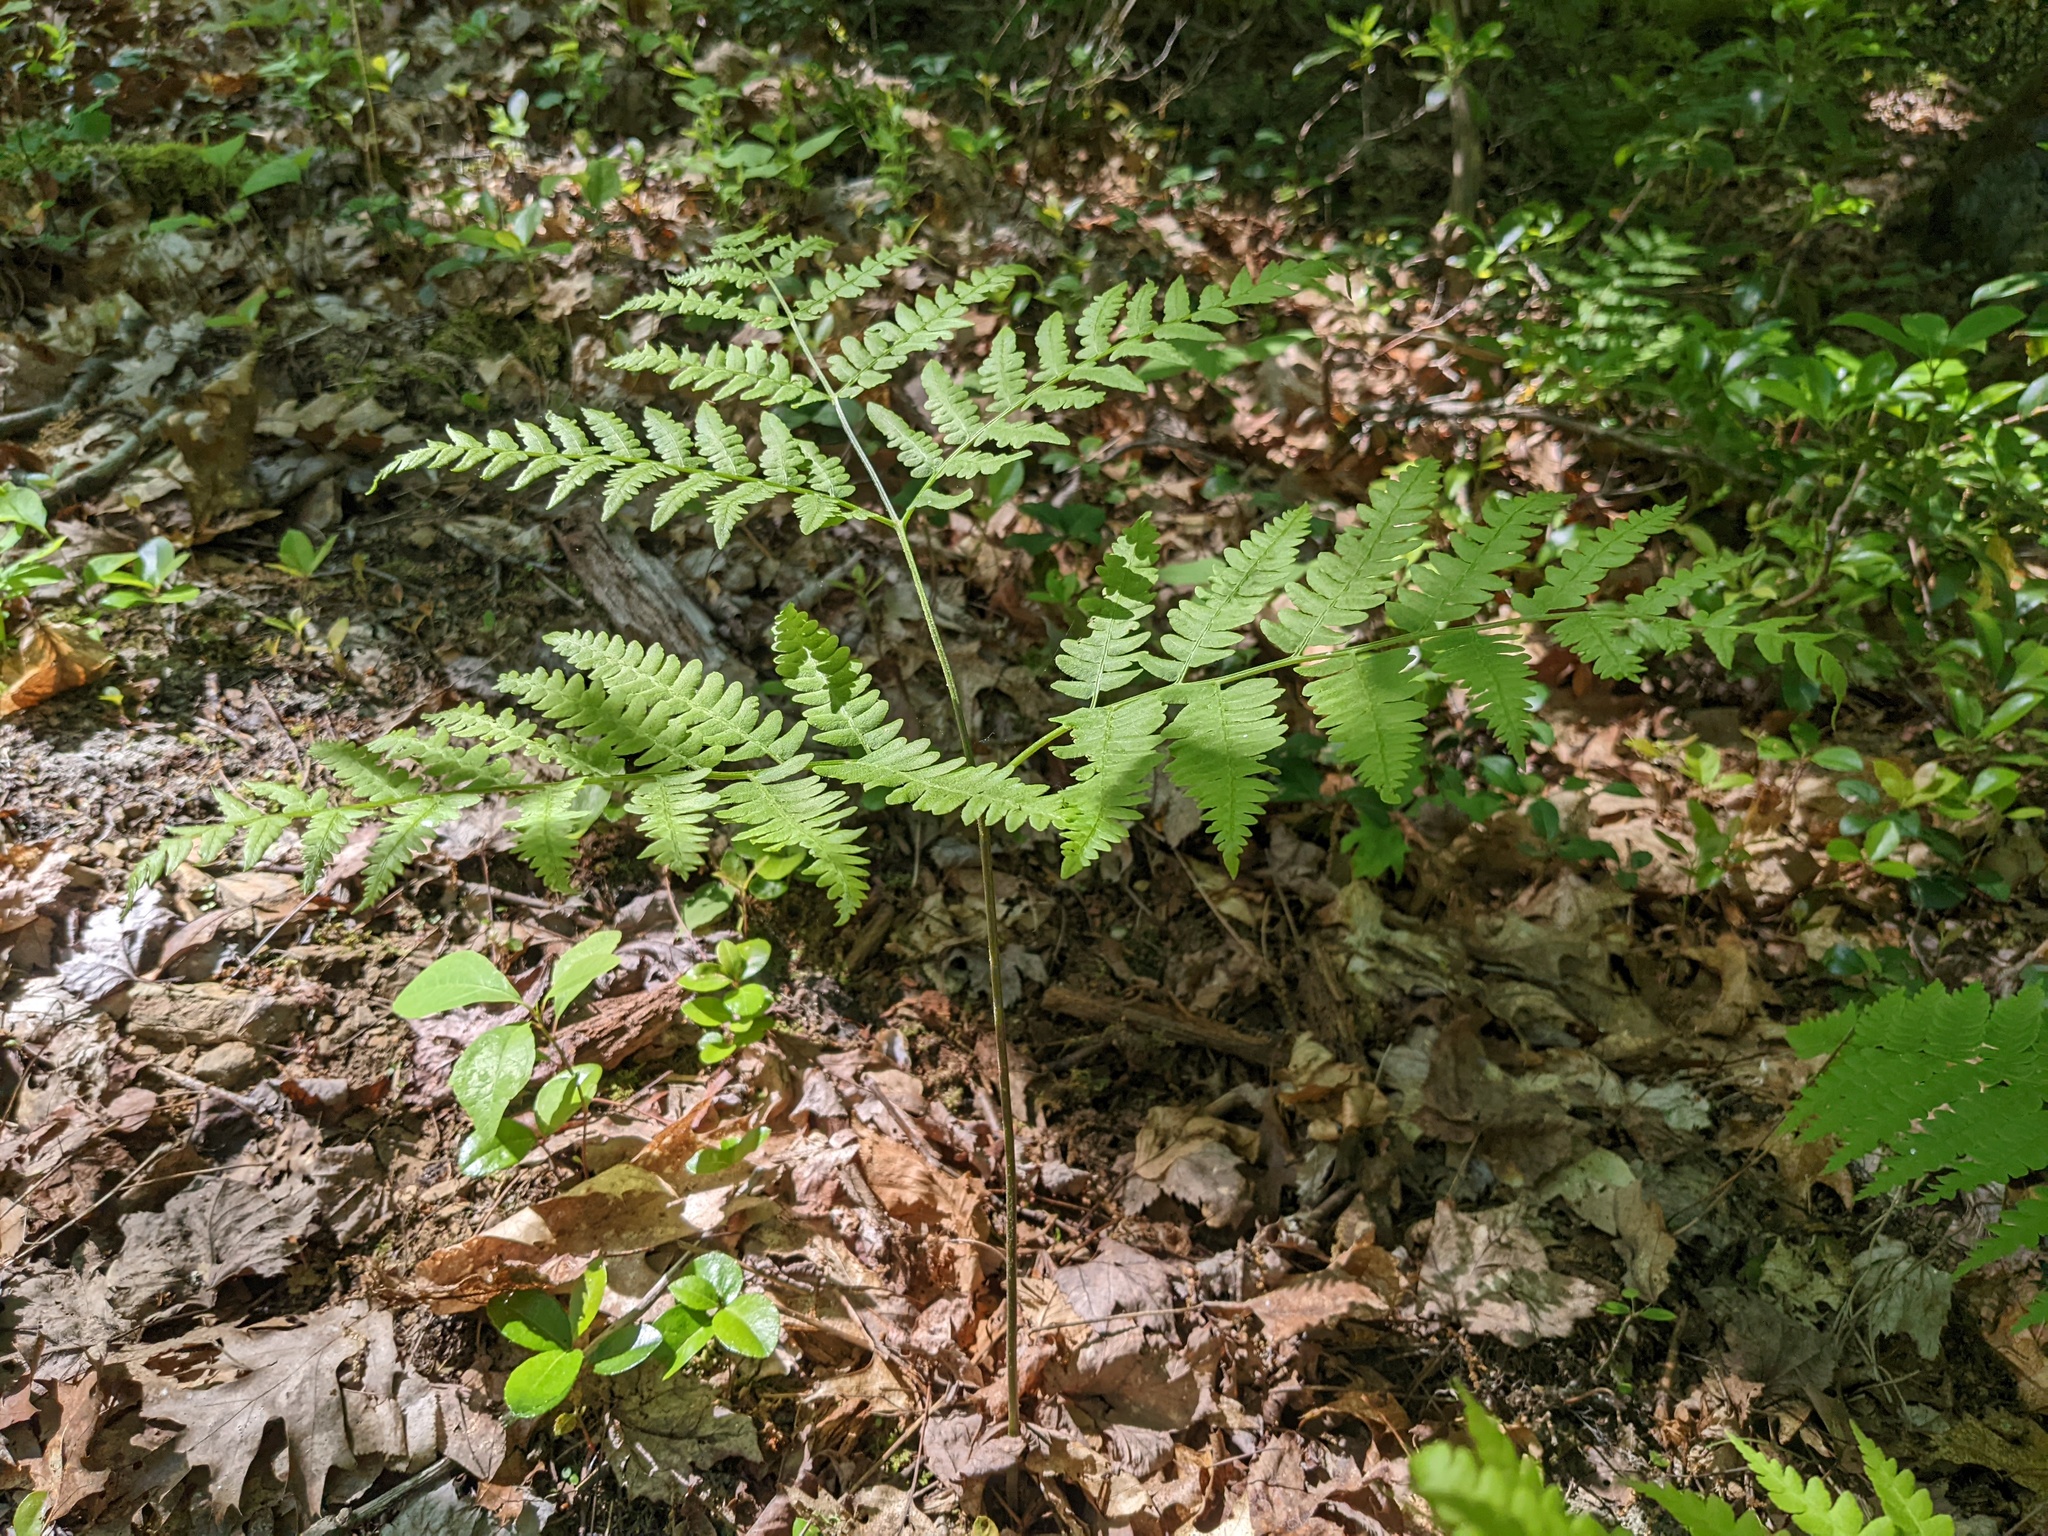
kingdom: Plantae
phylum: Tracheophyta
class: Polypodiopsida
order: Polypodiales
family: Dennstaedtiaceae
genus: Pteridium
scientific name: Pteridium aquilinum
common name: Bracken
